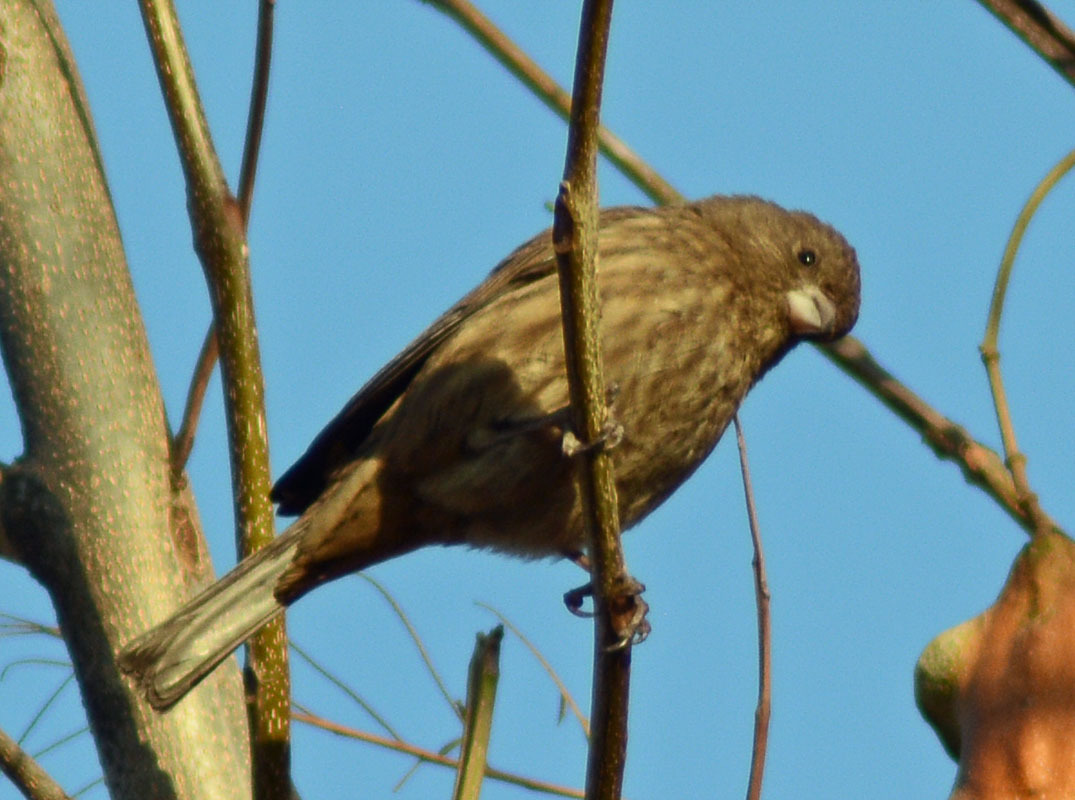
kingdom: Animalia
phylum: Chordata
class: Aves
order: Passeriformes
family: Fringillidae
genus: Haemorhous
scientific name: Haemorhous mexicanus
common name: House finch
